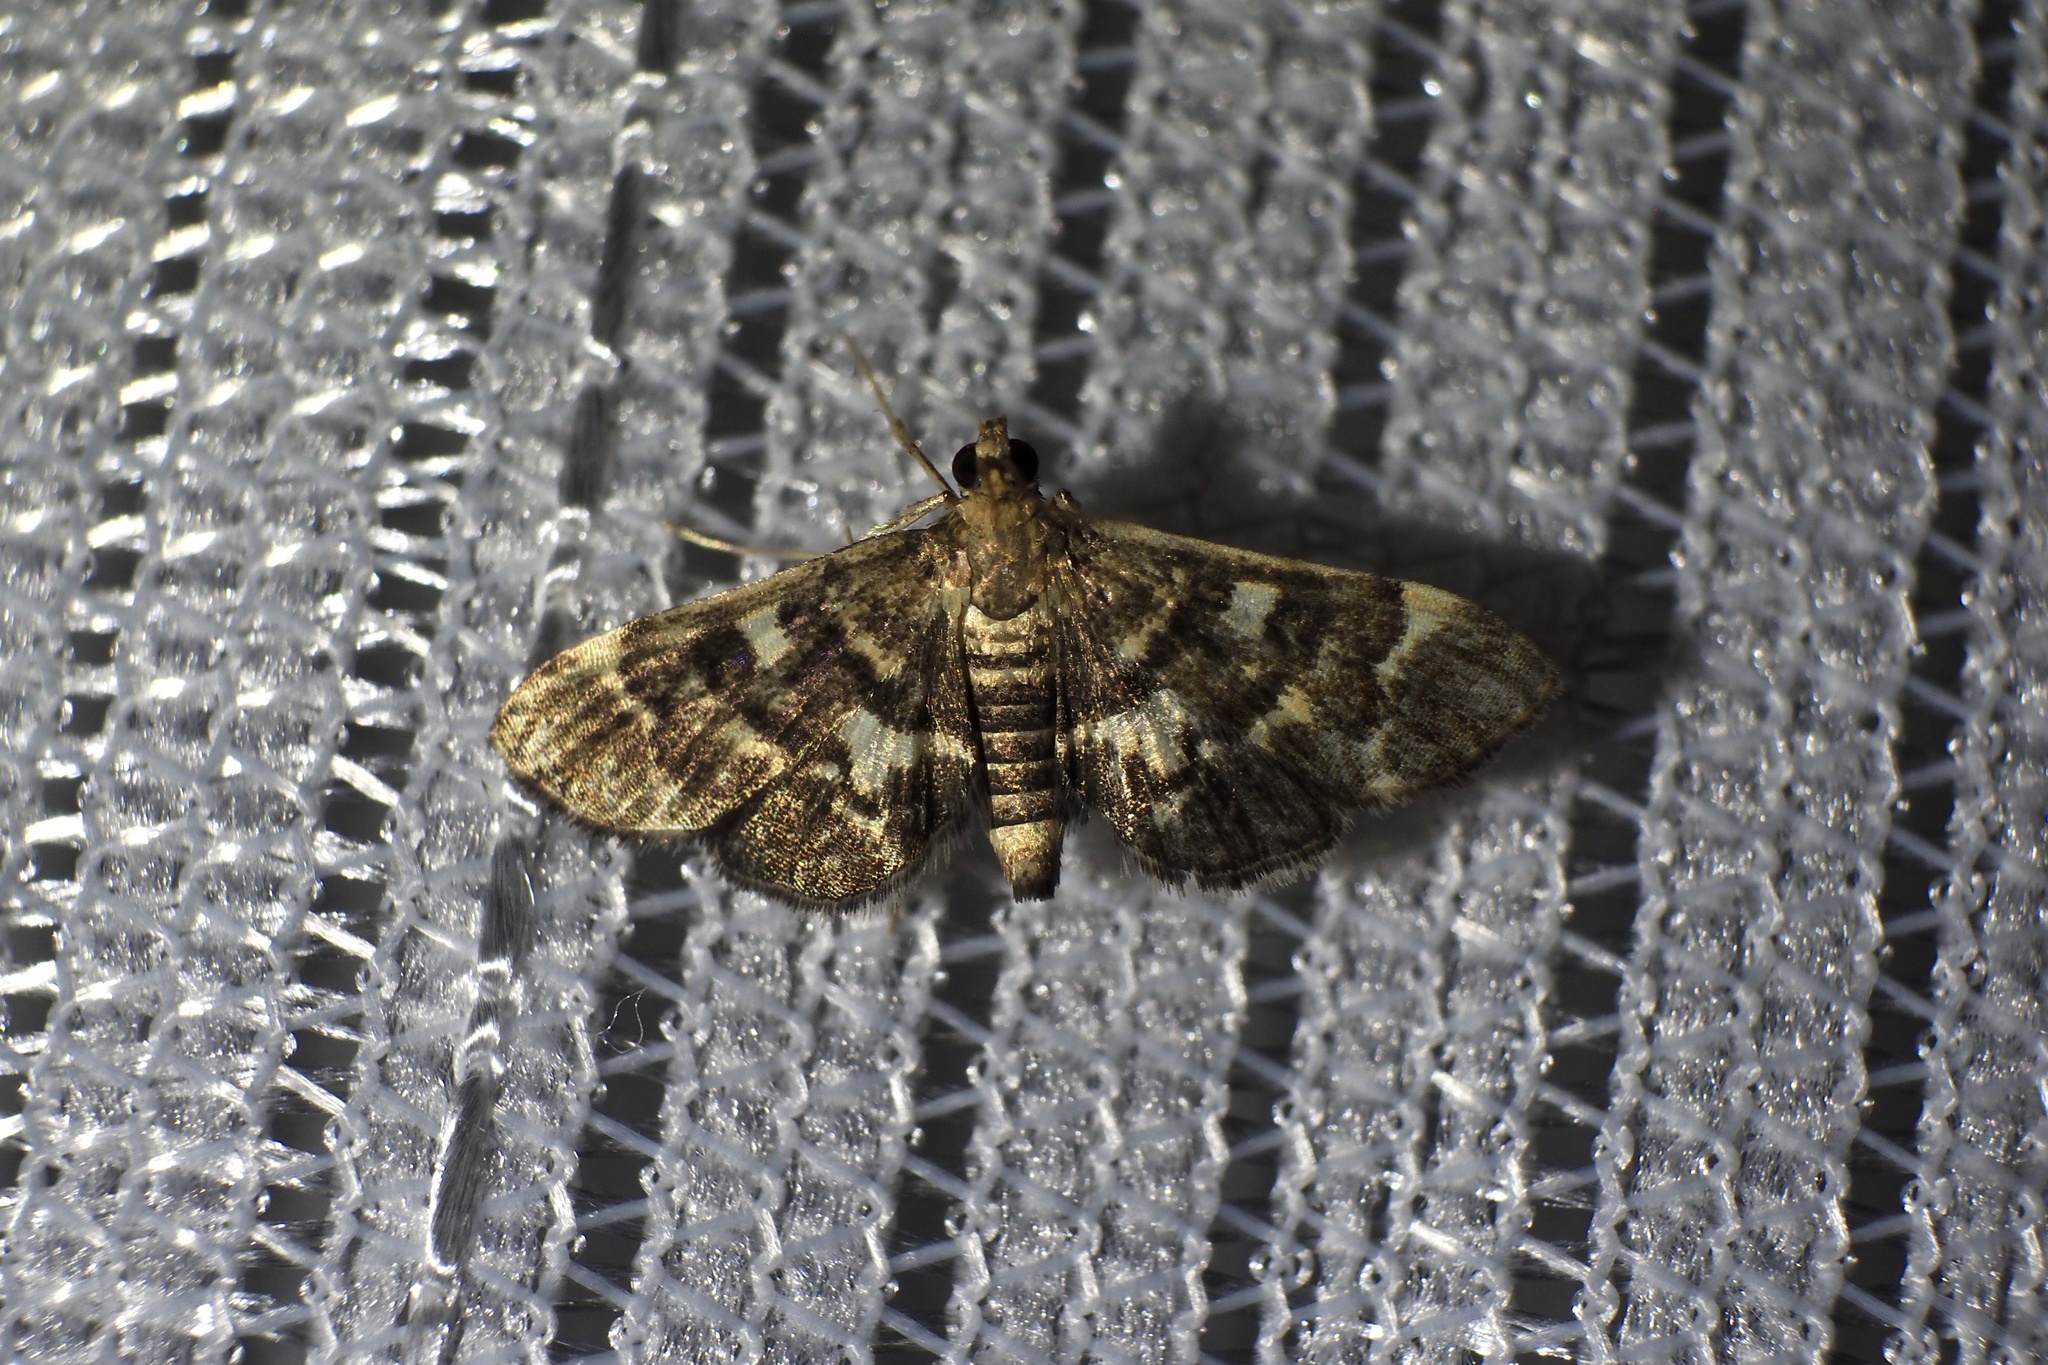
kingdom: Animalia
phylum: Arthropoda
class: Insecta
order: Lepidoptera
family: Crambidae
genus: Piletocera
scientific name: Piletocera sodalis
